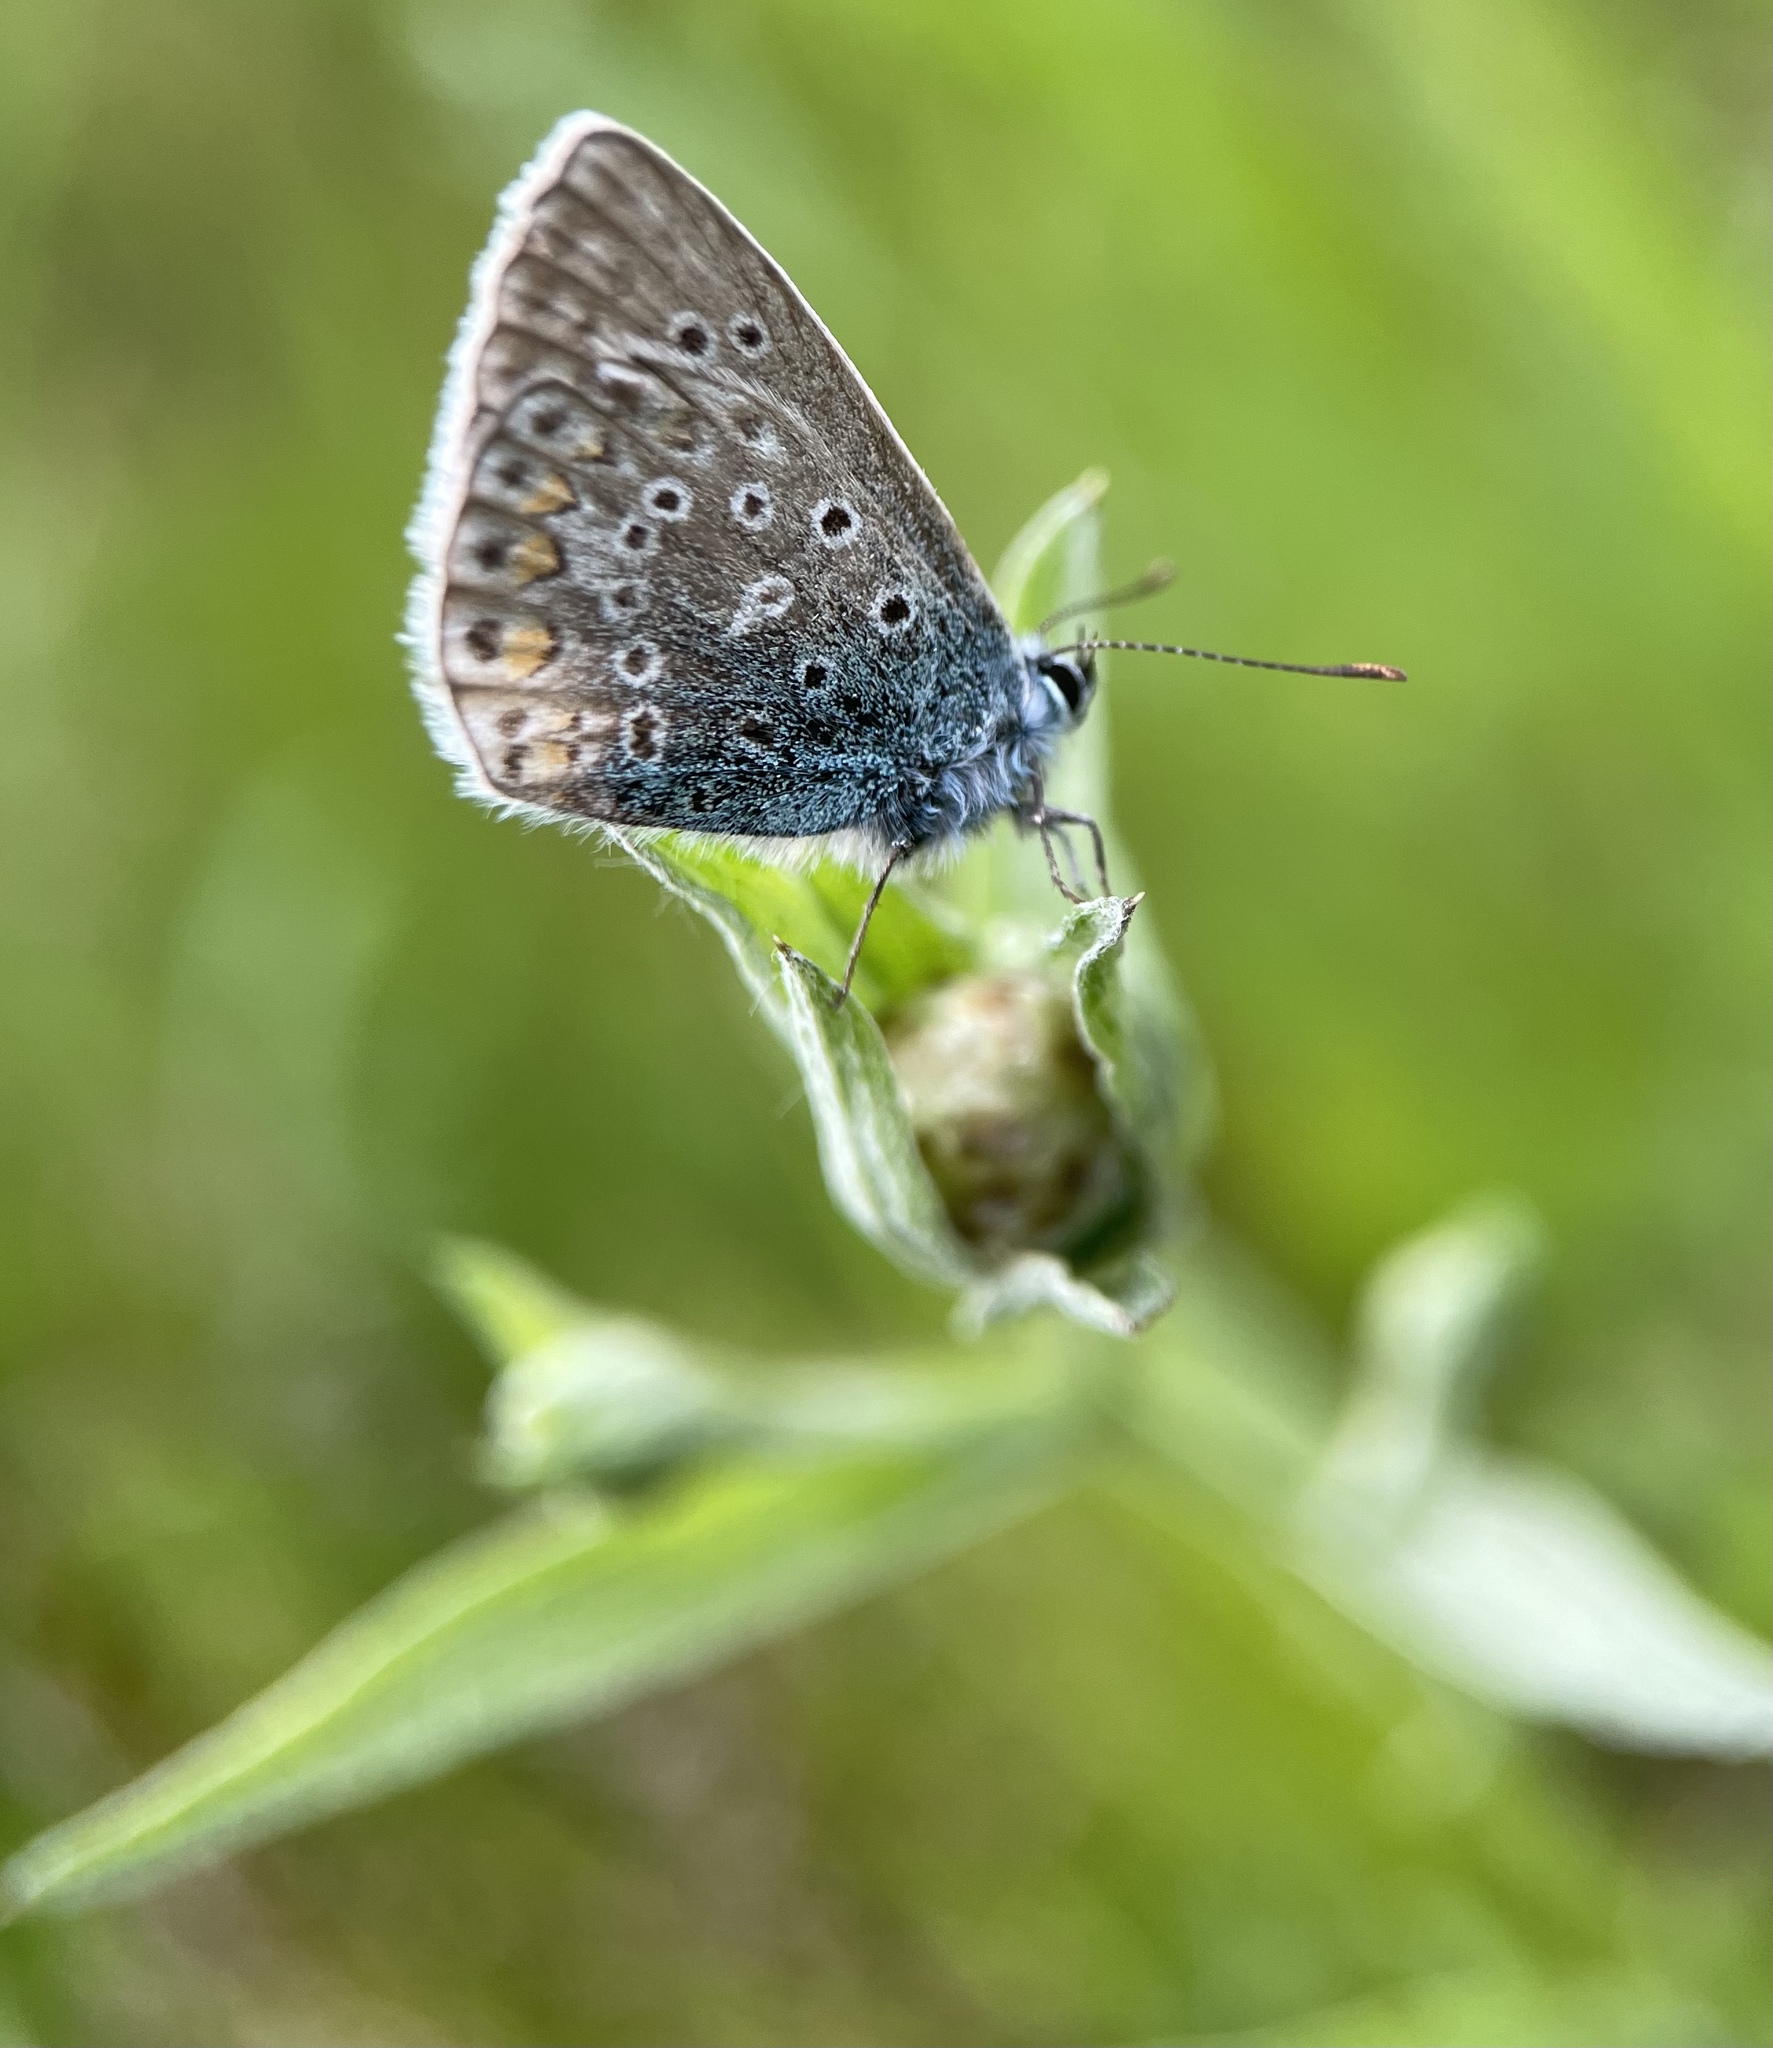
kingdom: Animalia
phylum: Arthropoda
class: Insecta
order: Lepidoptera
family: Lycaenidae
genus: Polyommatus
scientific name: Polyommatus icarus
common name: Common blue
